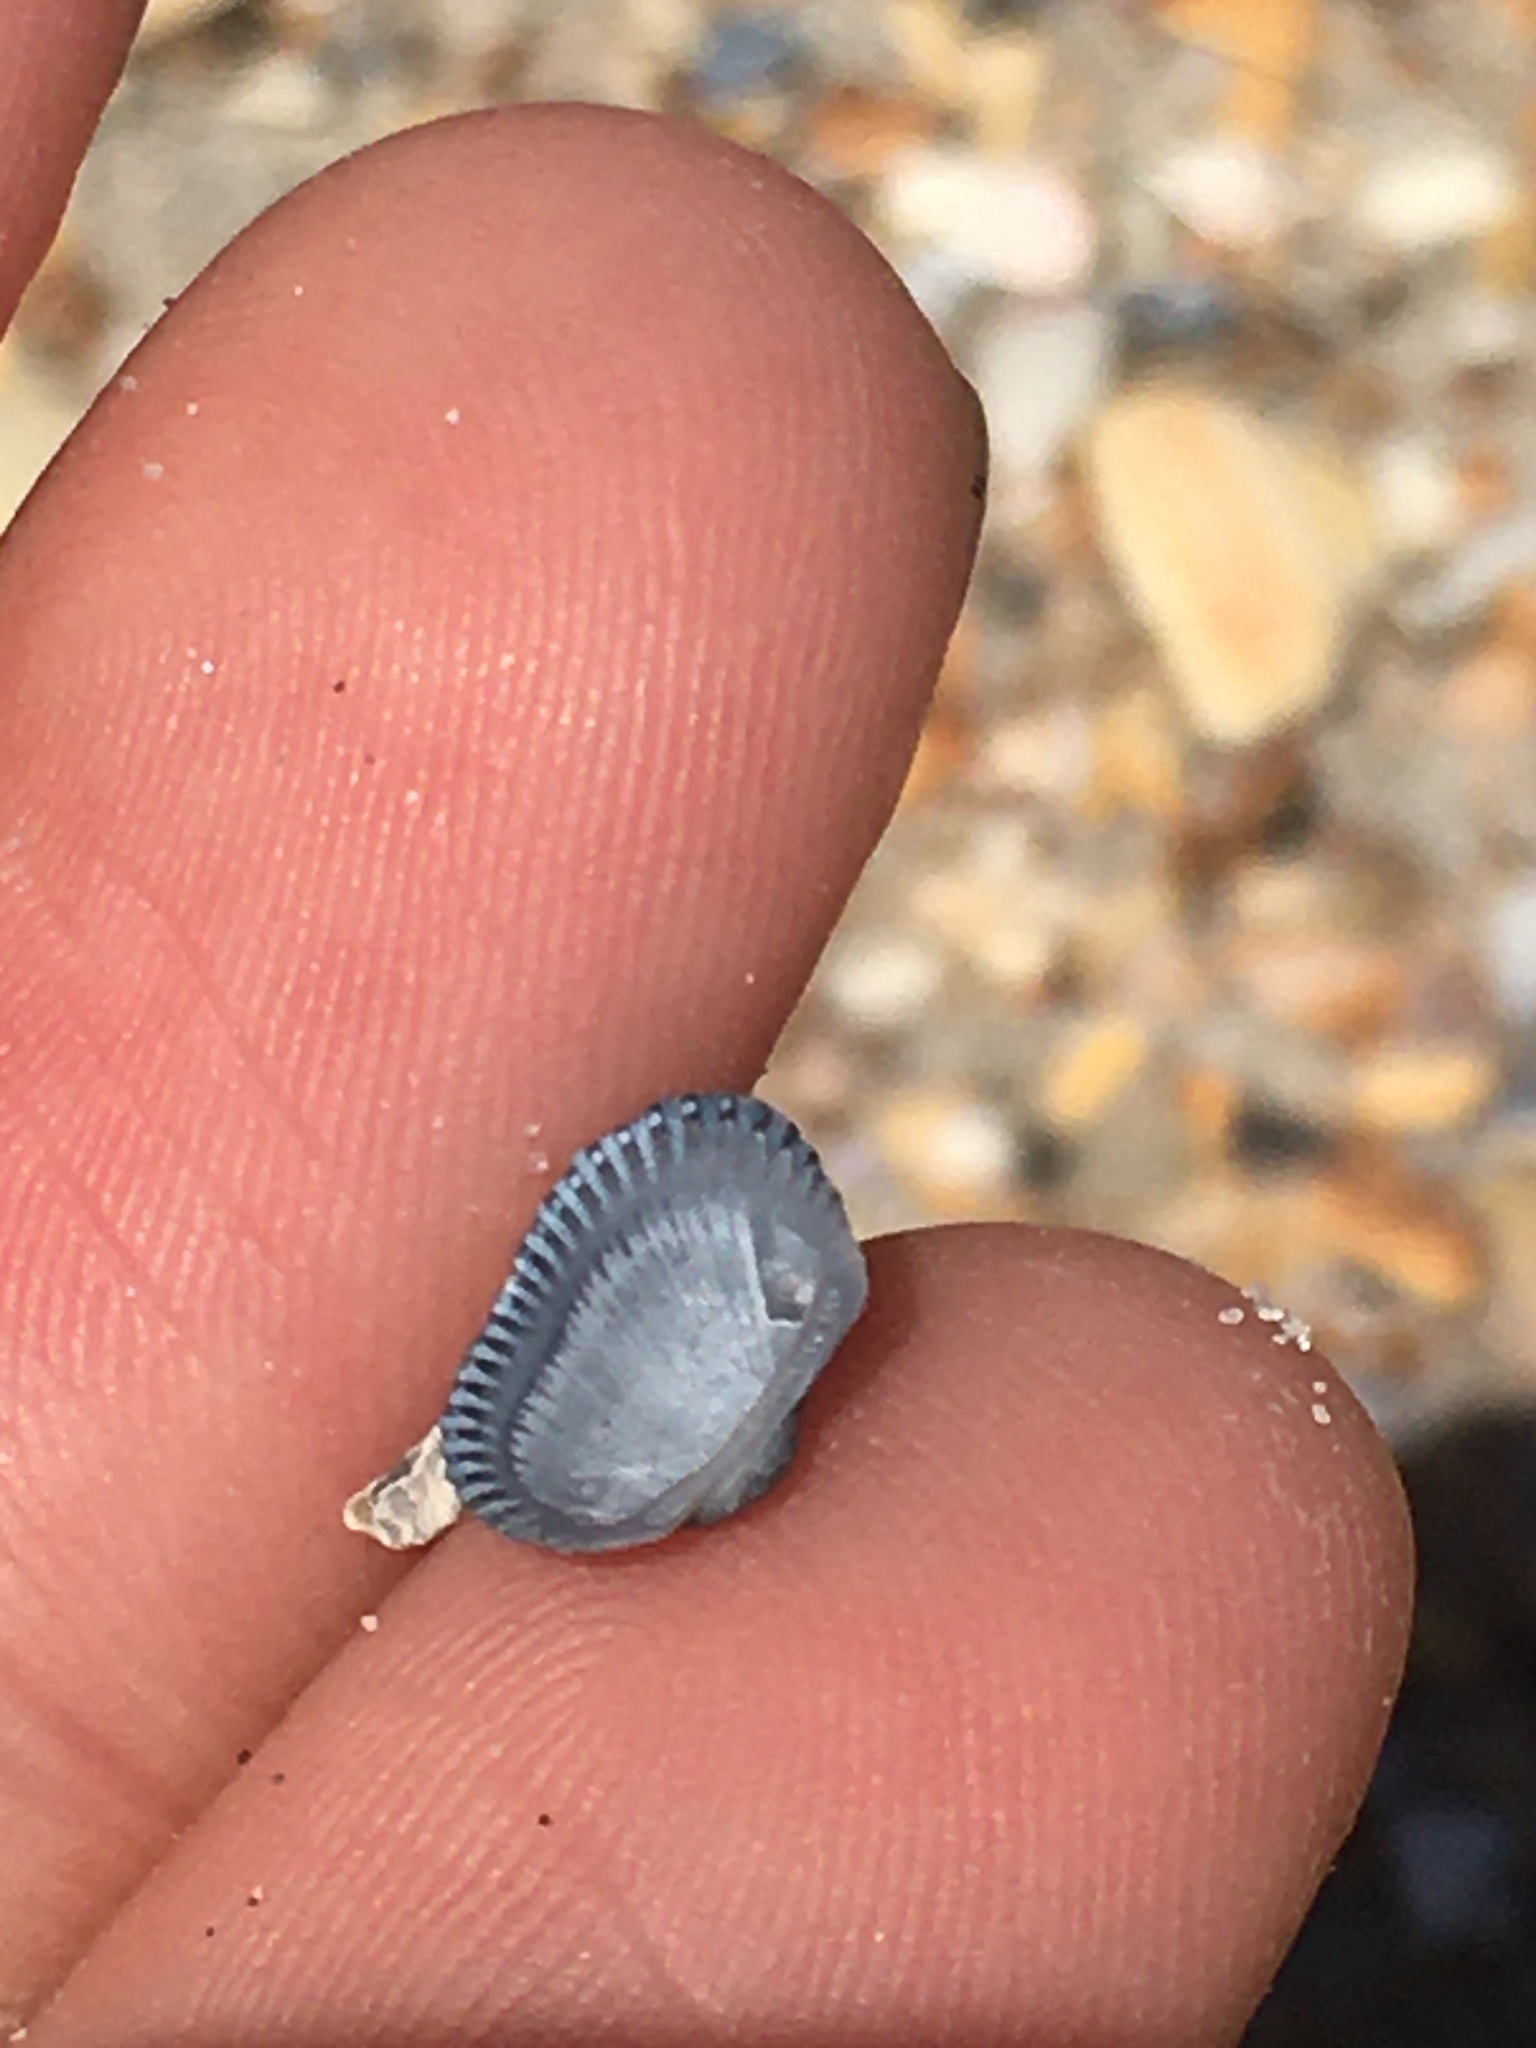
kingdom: Animalia
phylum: Mollusca
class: Bivalvia
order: Arcida
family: Arcidae
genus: Anadara
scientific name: Anadara transversa
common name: Transverse ark
